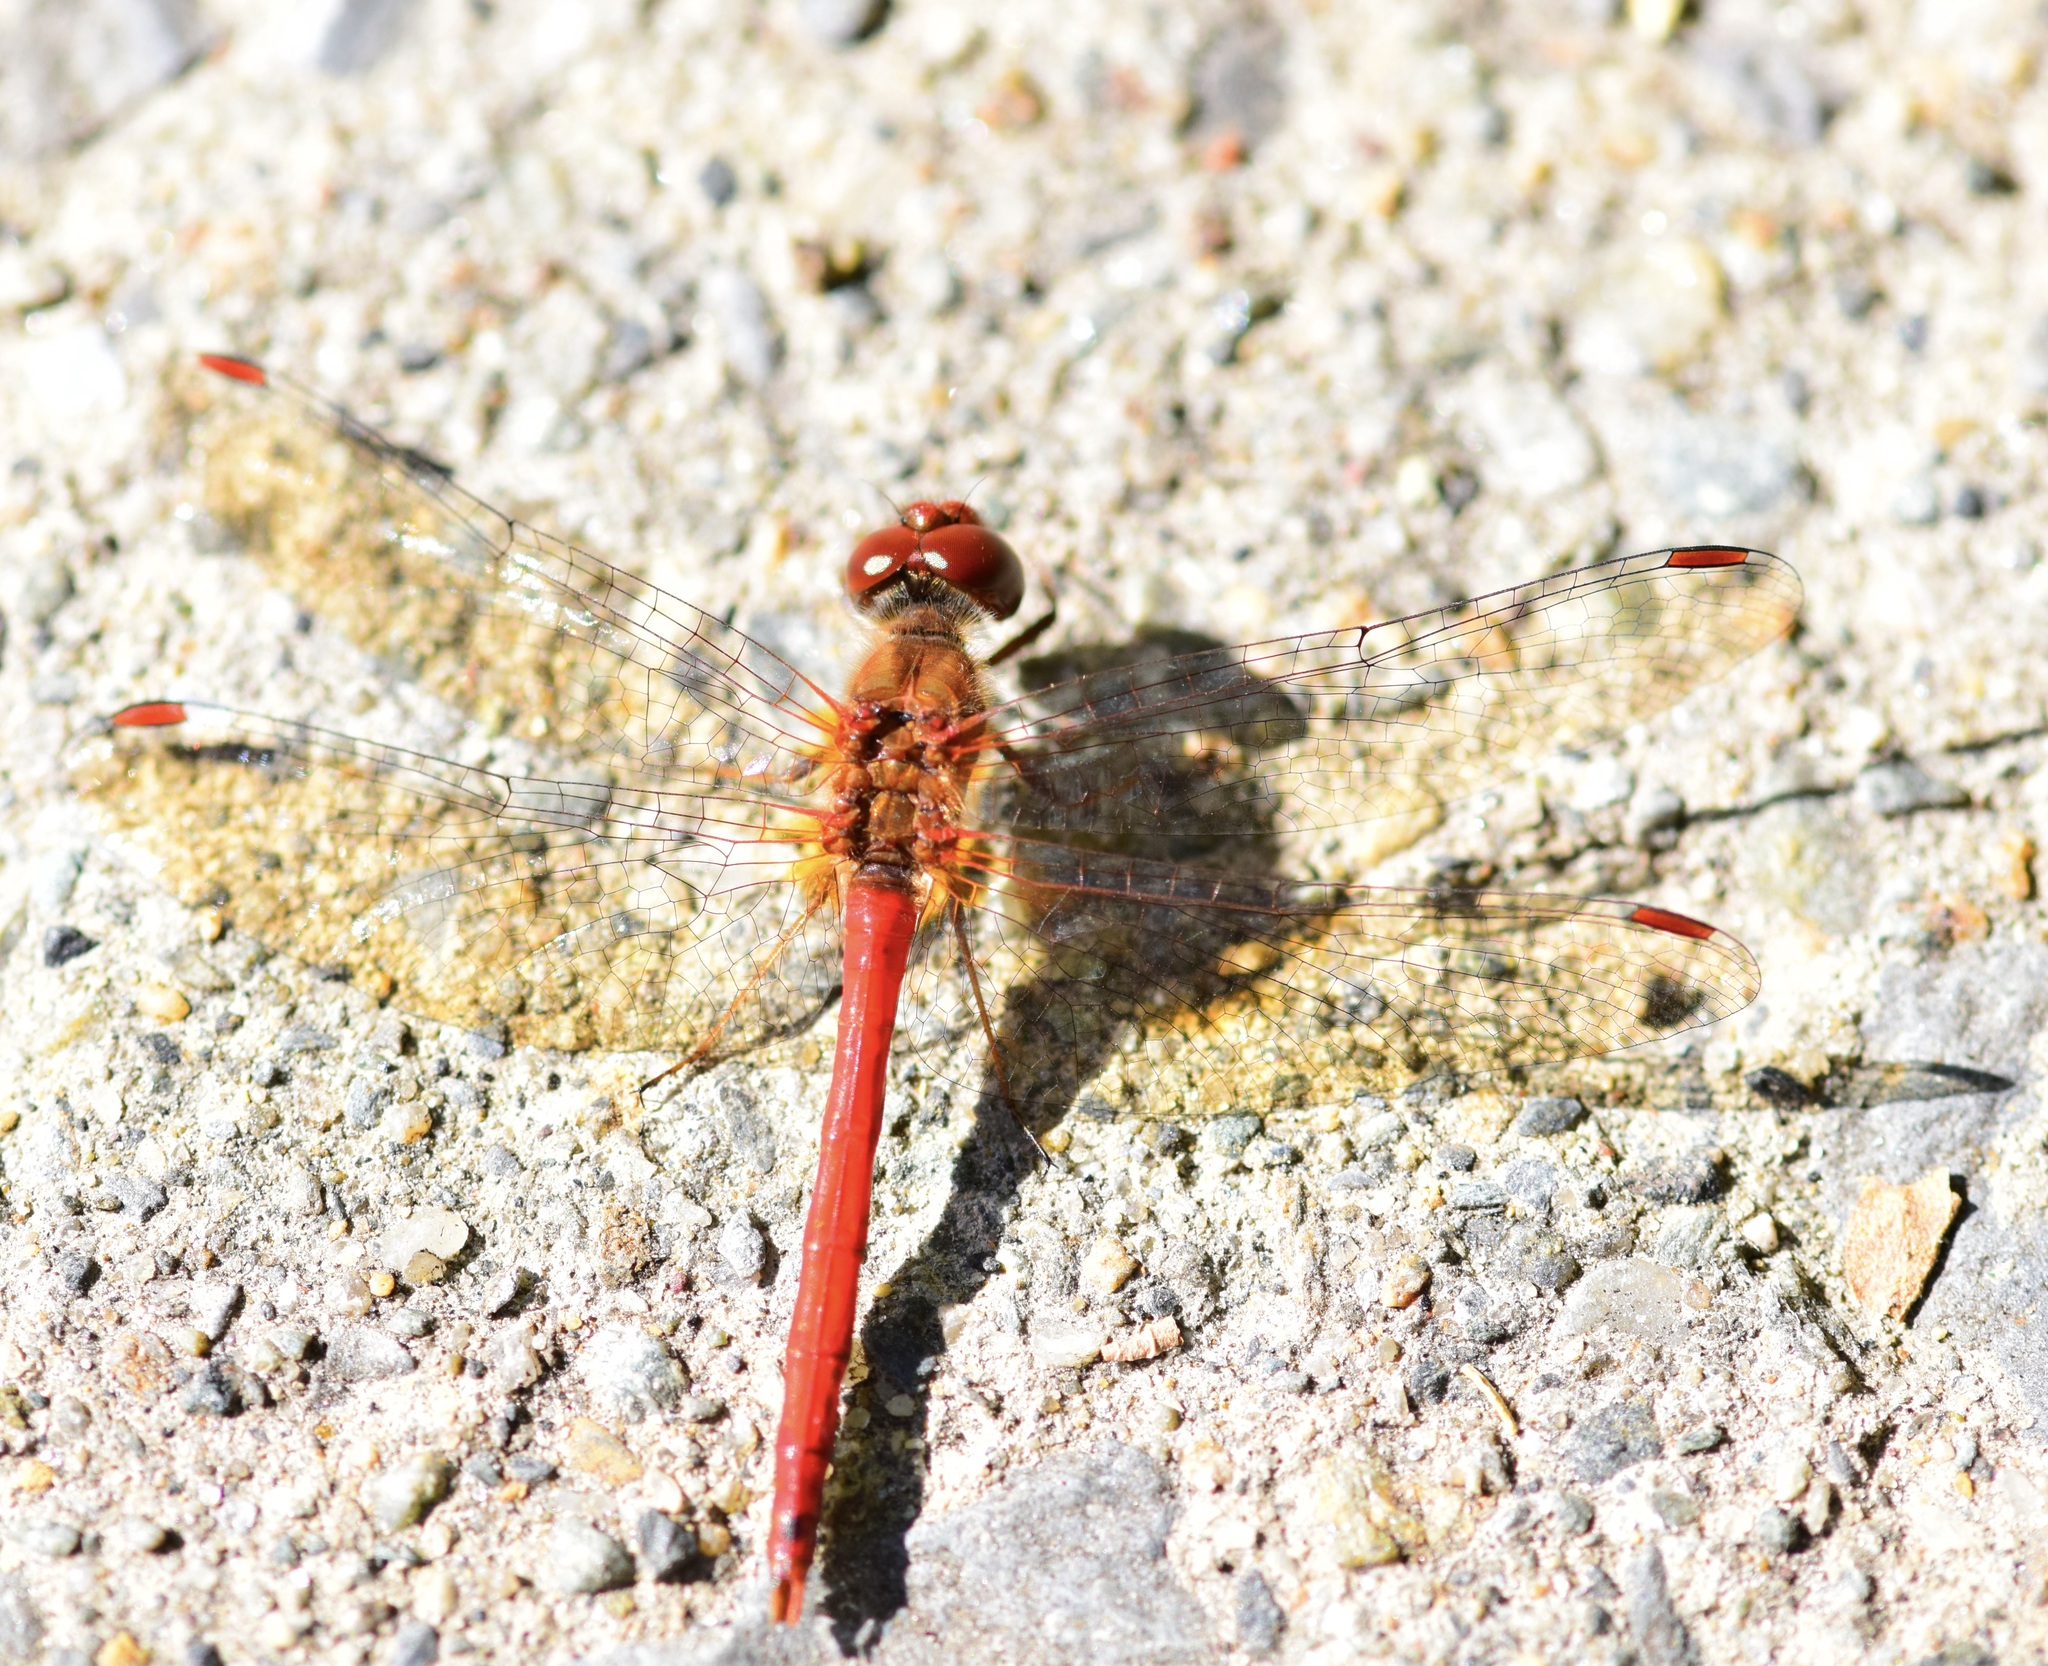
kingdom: Animalia
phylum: Arthropoda
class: Insecta
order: Odonata
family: Libellulidae
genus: Sympetrum
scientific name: Sympetrum vicinum
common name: Autumn meadowhawk
